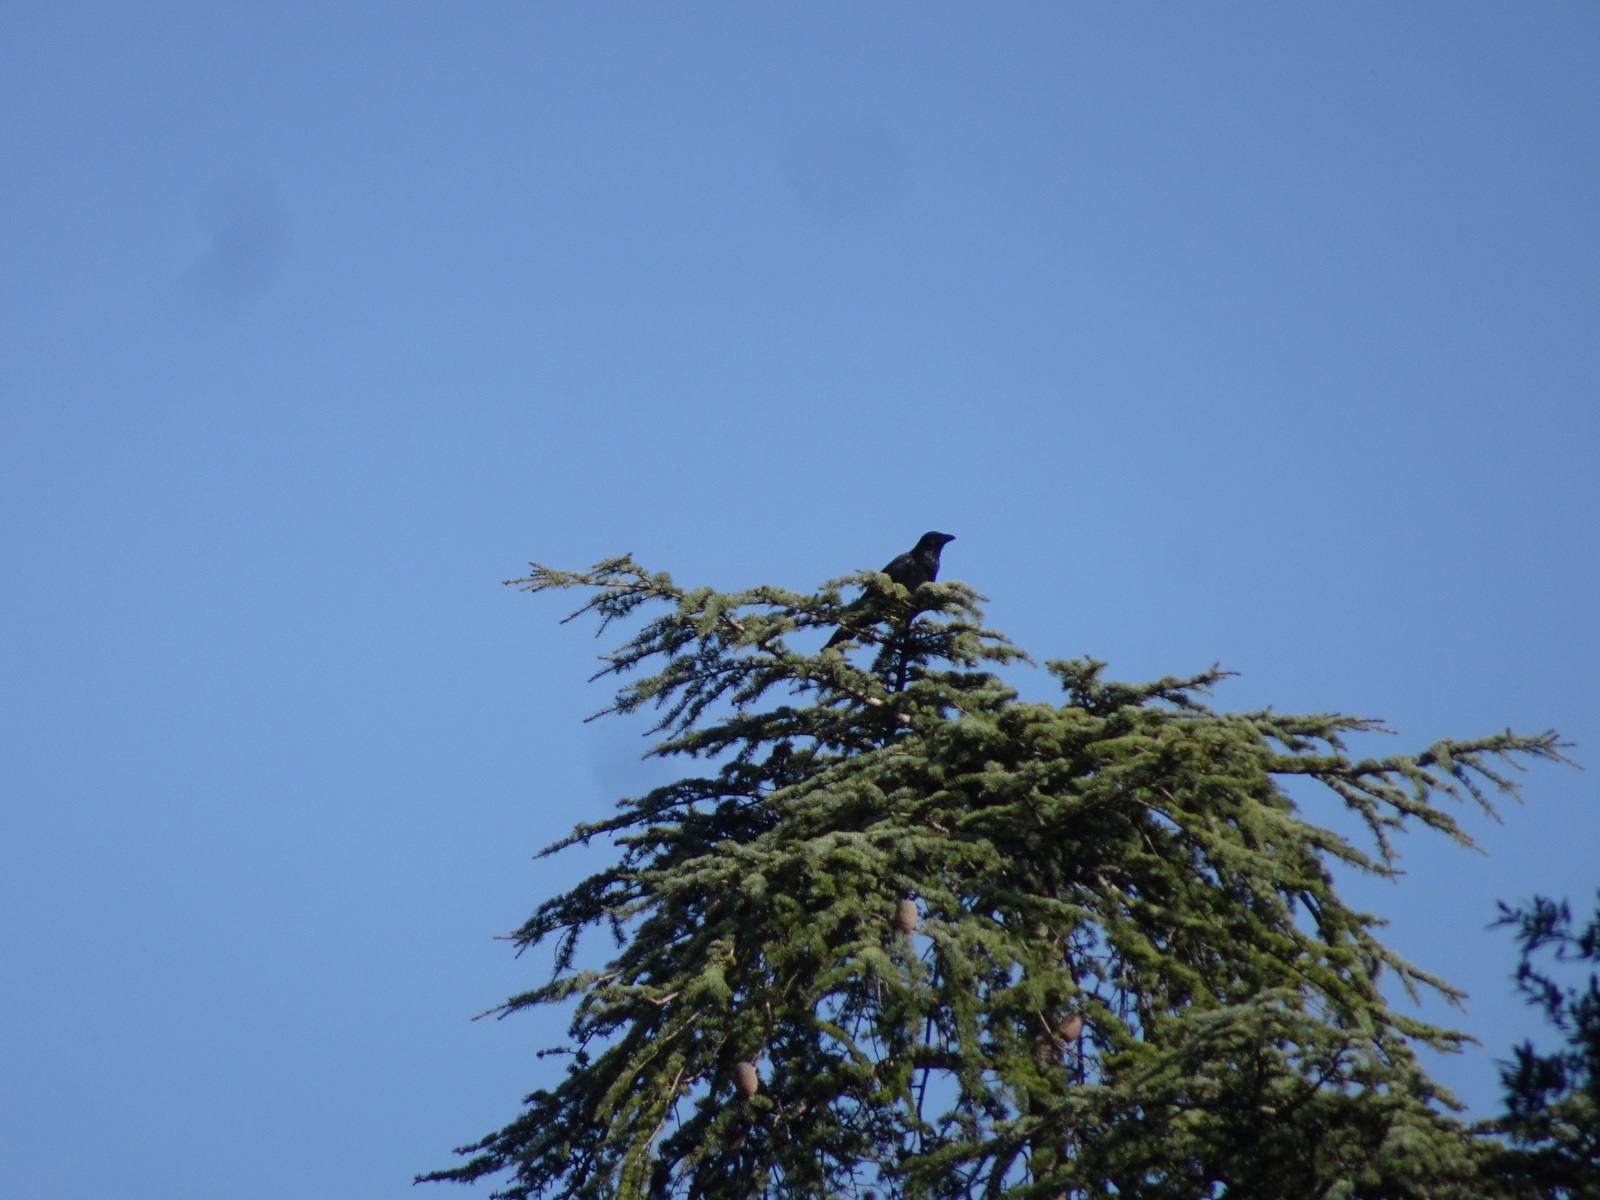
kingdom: Animalia
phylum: Chordata
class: Aves
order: Passeriformes
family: Corvidae
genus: Corvus
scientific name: Corvus corone
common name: Carrion crow
